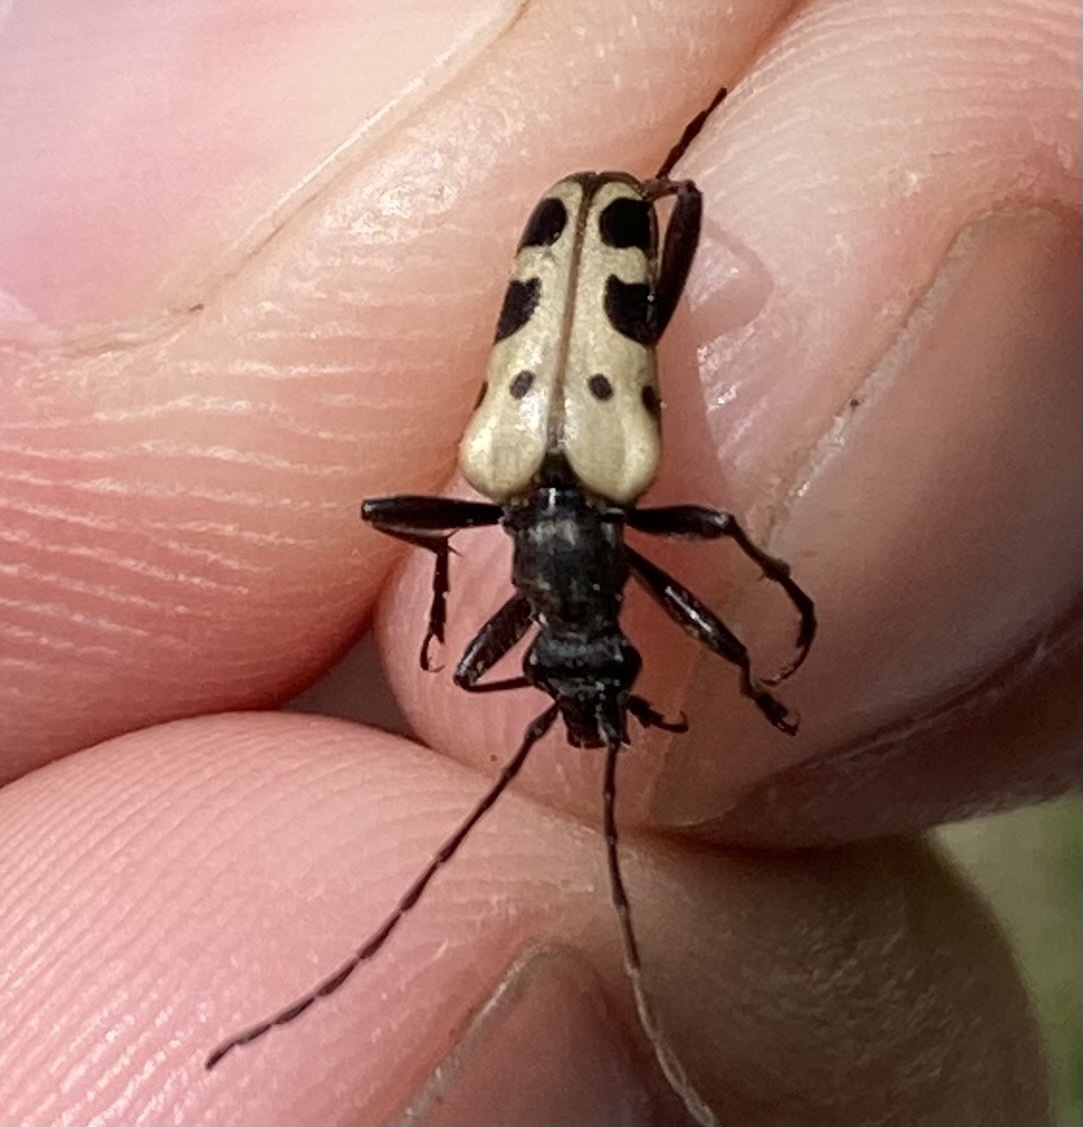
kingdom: Animalia
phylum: Arthropoda
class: Insecta
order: Coleoptera
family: Cerambycidae
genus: Evodinus
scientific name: Evodinus monticola
